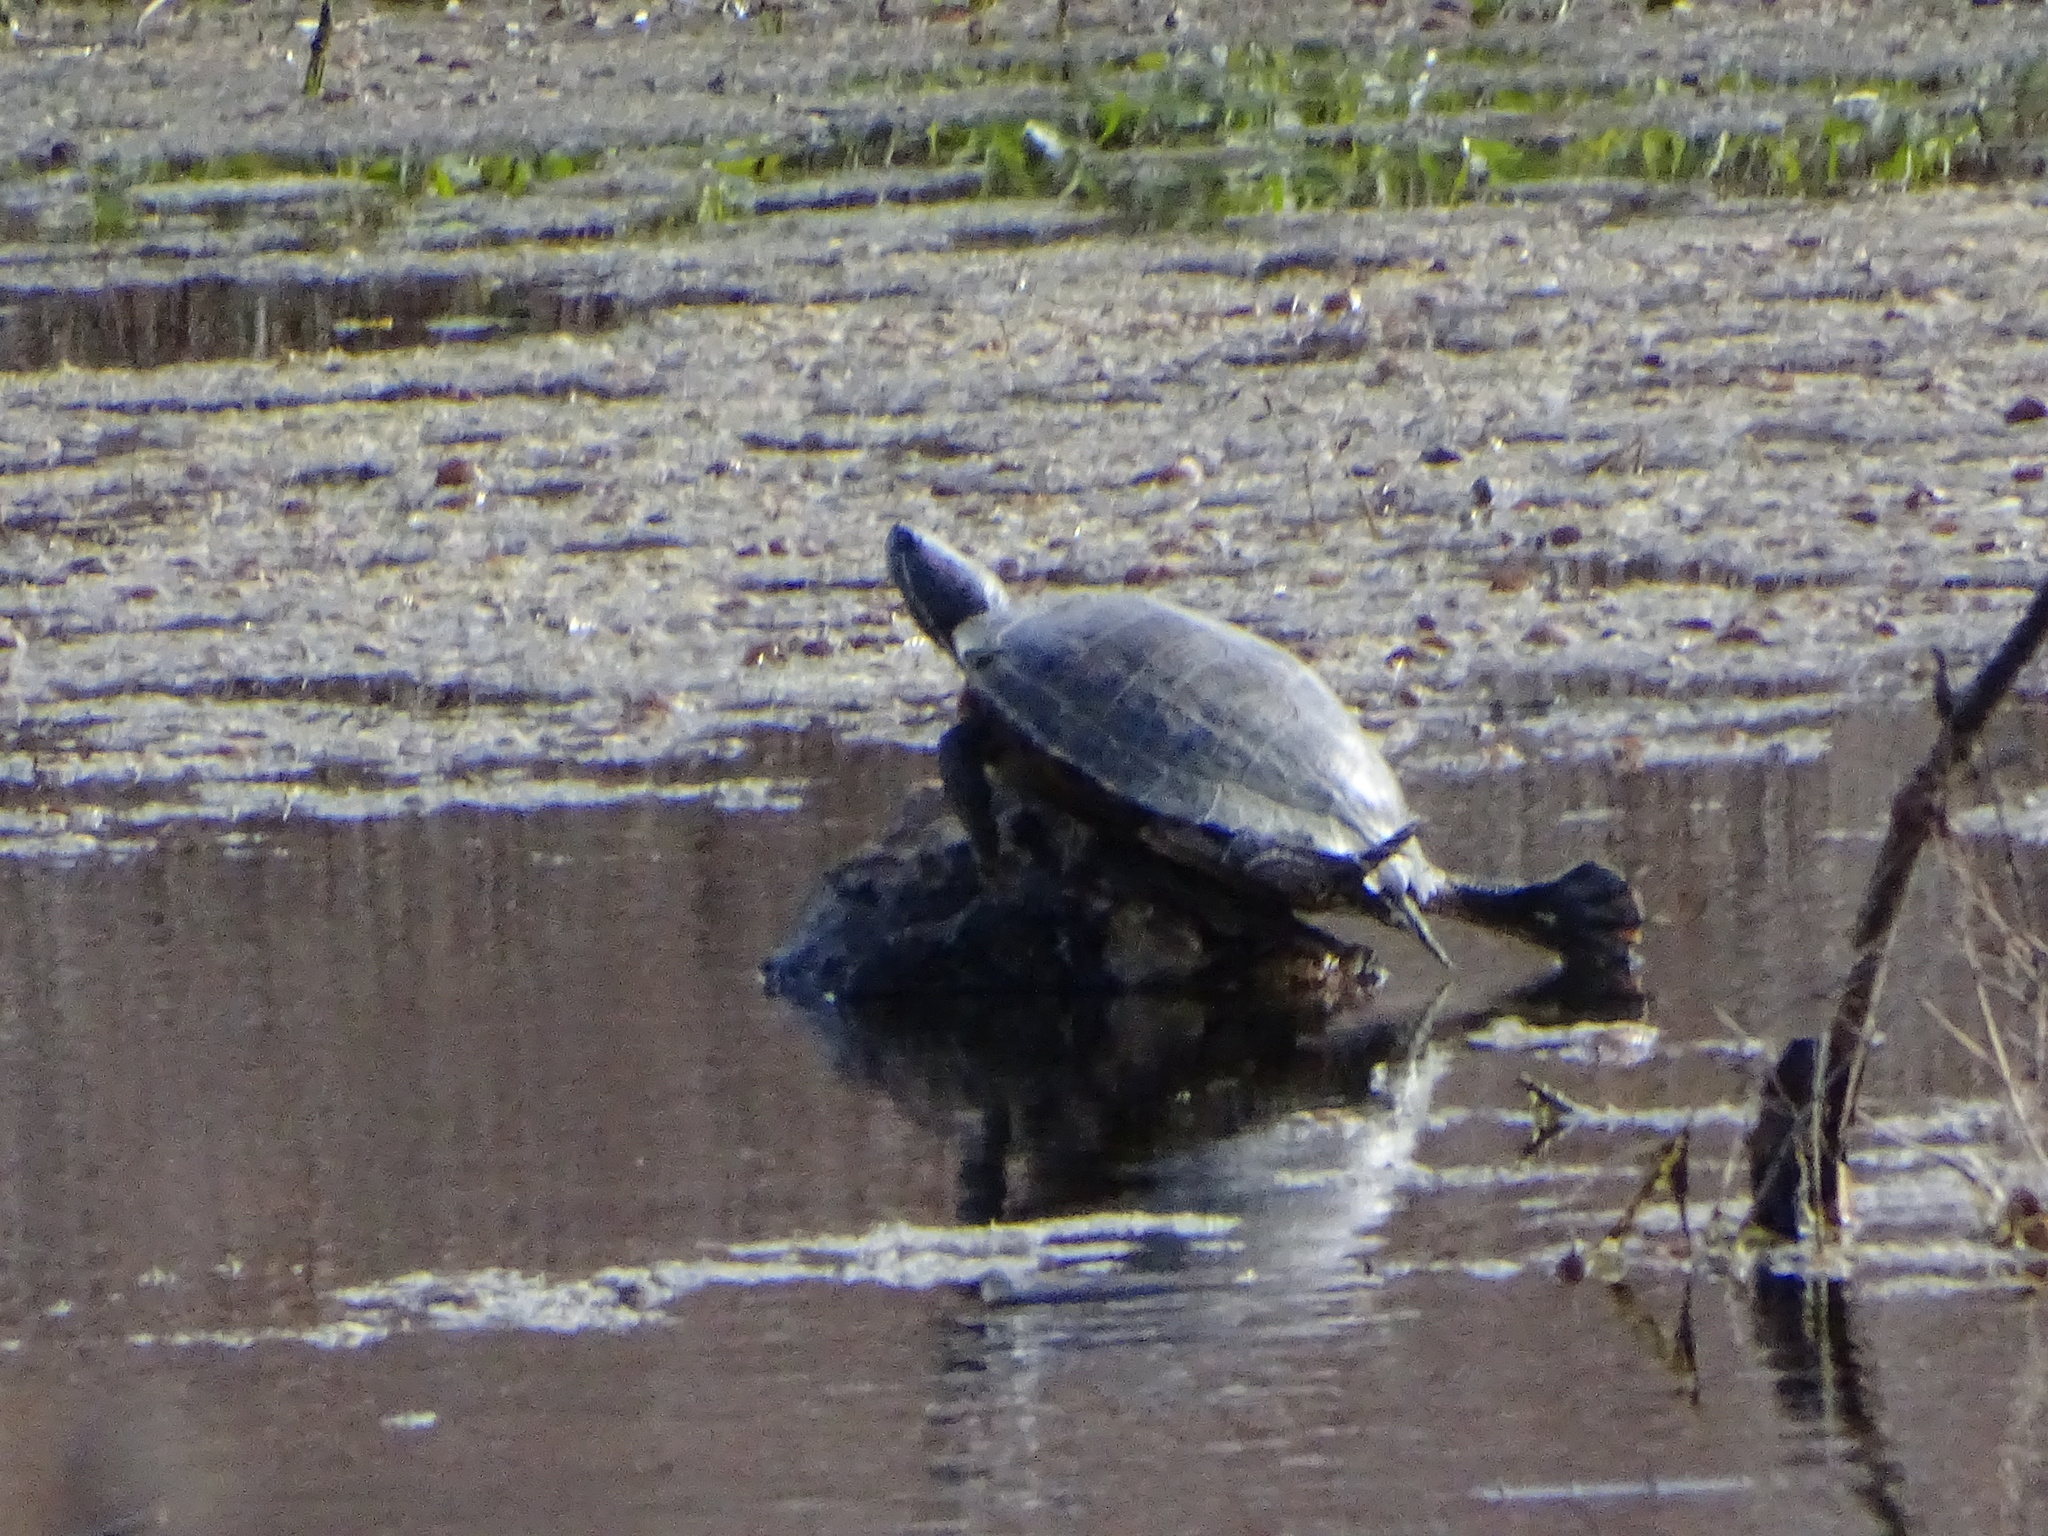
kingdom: Animalia
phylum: Chordata
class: Testudines
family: Emydidae
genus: Trachemys
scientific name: Trachemys scripta
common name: Slider
